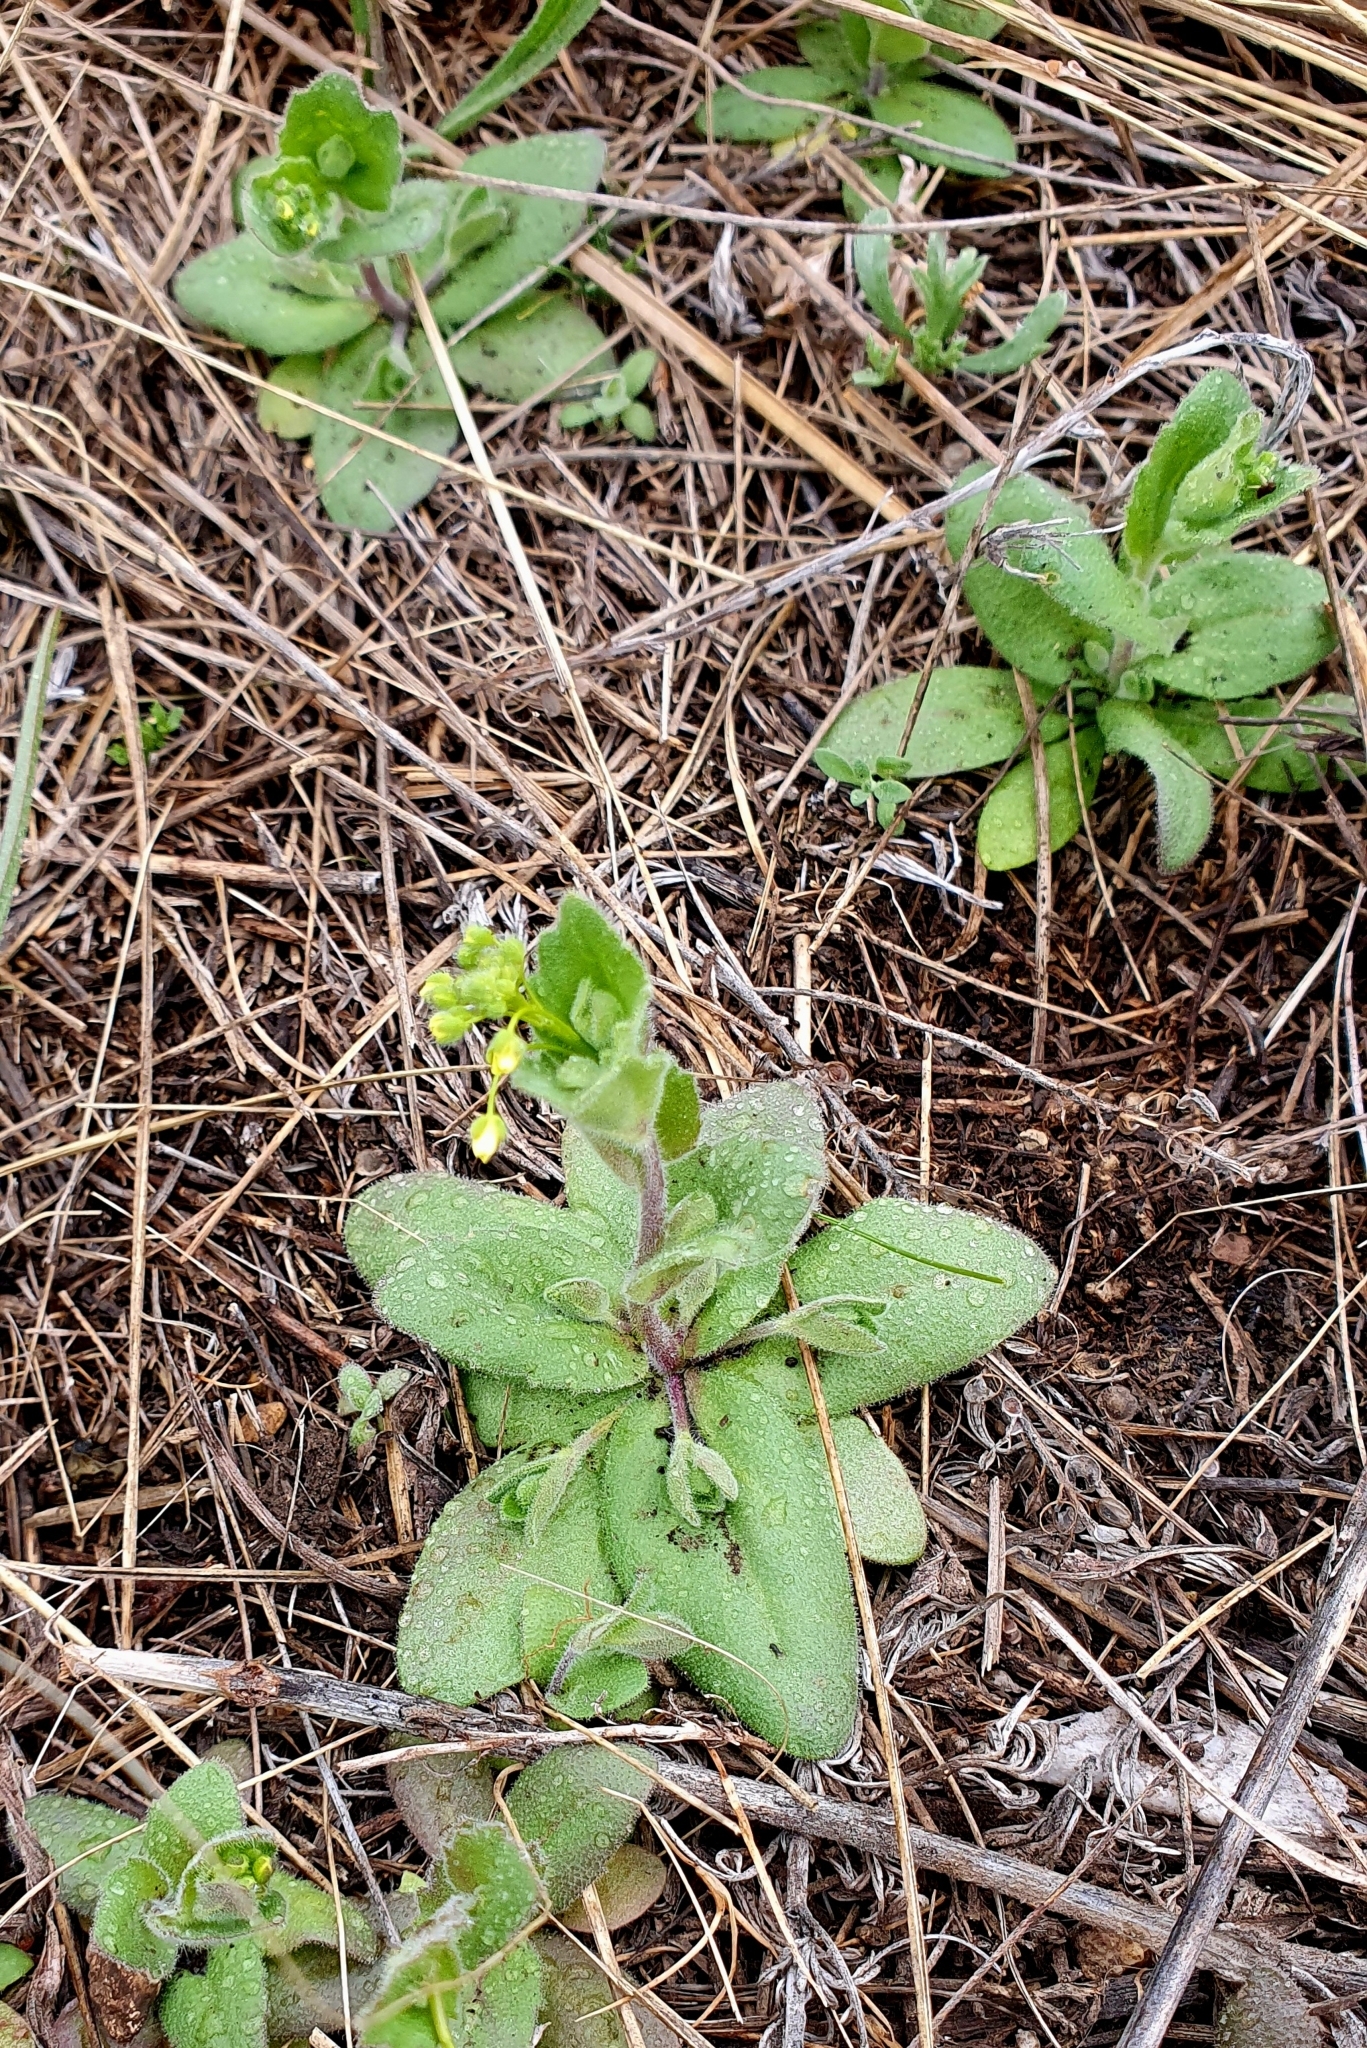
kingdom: Plantae
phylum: Tracheophyta
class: Magnoliopsida
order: Brassicales
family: Brassicaceae
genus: Draba
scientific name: Draba nemorosa
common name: Wood whitlow-grass
